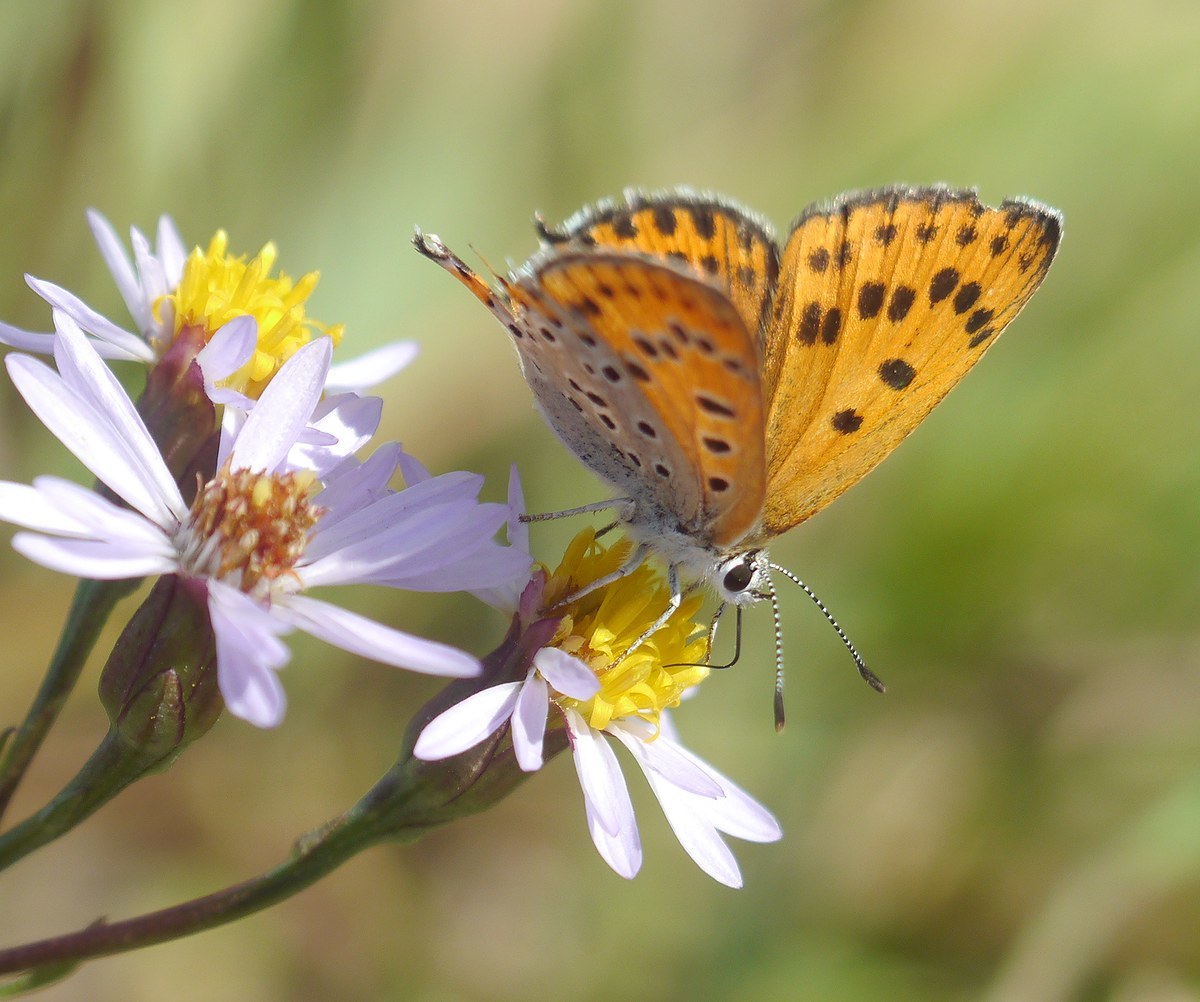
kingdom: Animalia
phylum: Arthropoda
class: Insecta
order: Lepidoptera
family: Lycaenidae
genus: Thersamonia
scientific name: Thersamonia thersamon
